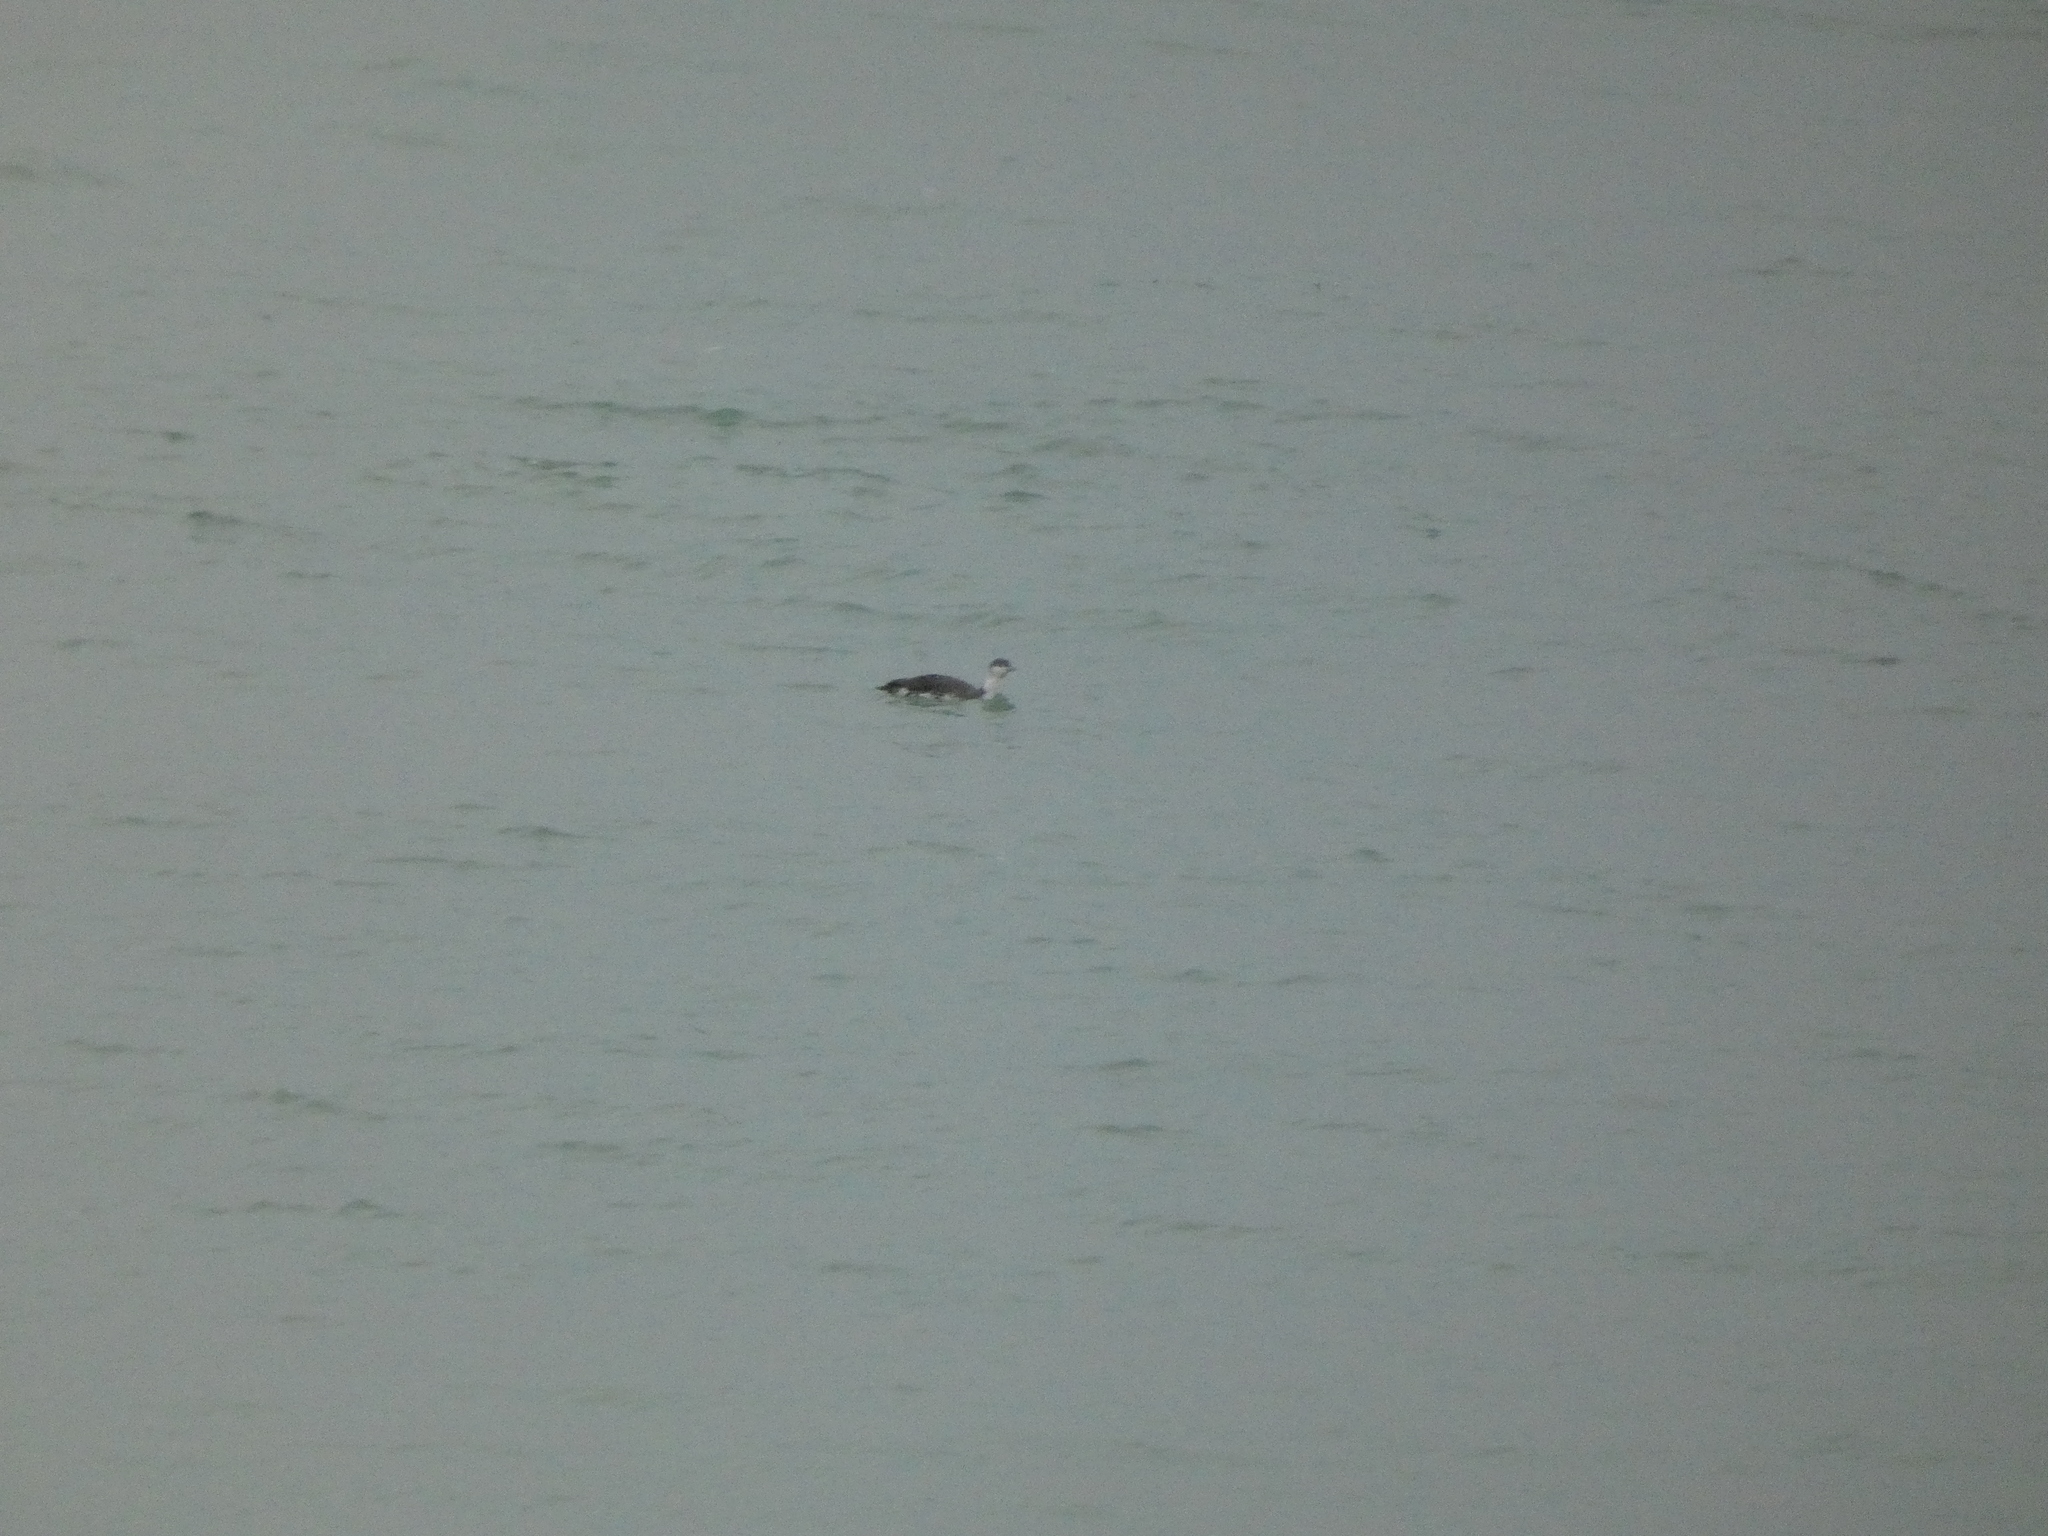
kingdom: Animalia
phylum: Chordata
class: Aves
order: Gaviiformes
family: Gaviidae
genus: Gavia
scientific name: Gavia stellata
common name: Red-throated loon
